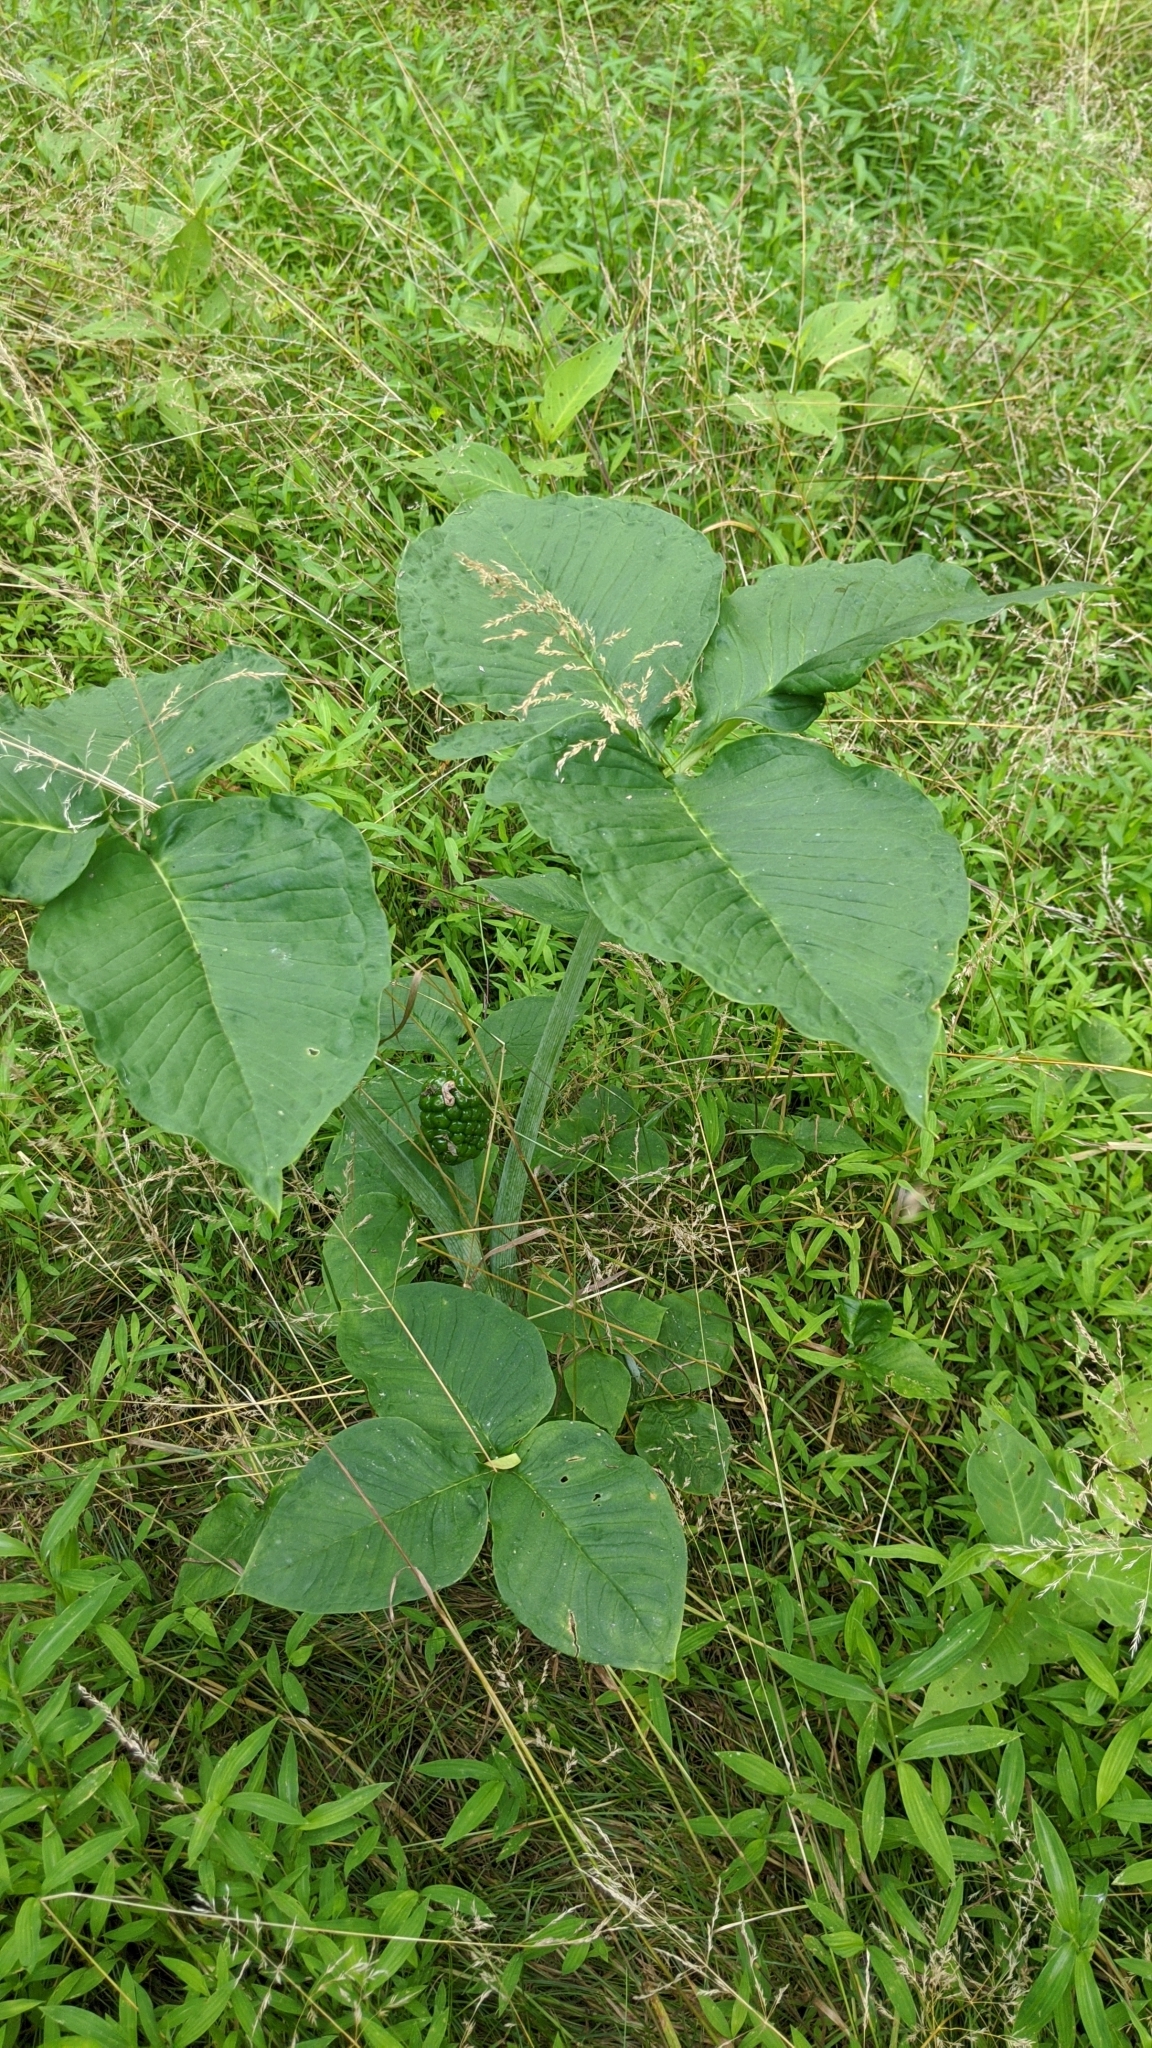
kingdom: Plantae
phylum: Tracheophyta
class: Liliopsida
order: Alismatales
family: Araceae
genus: Arisaema
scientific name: Arisaema triphyllum
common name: Jack-in-the-pulpit
